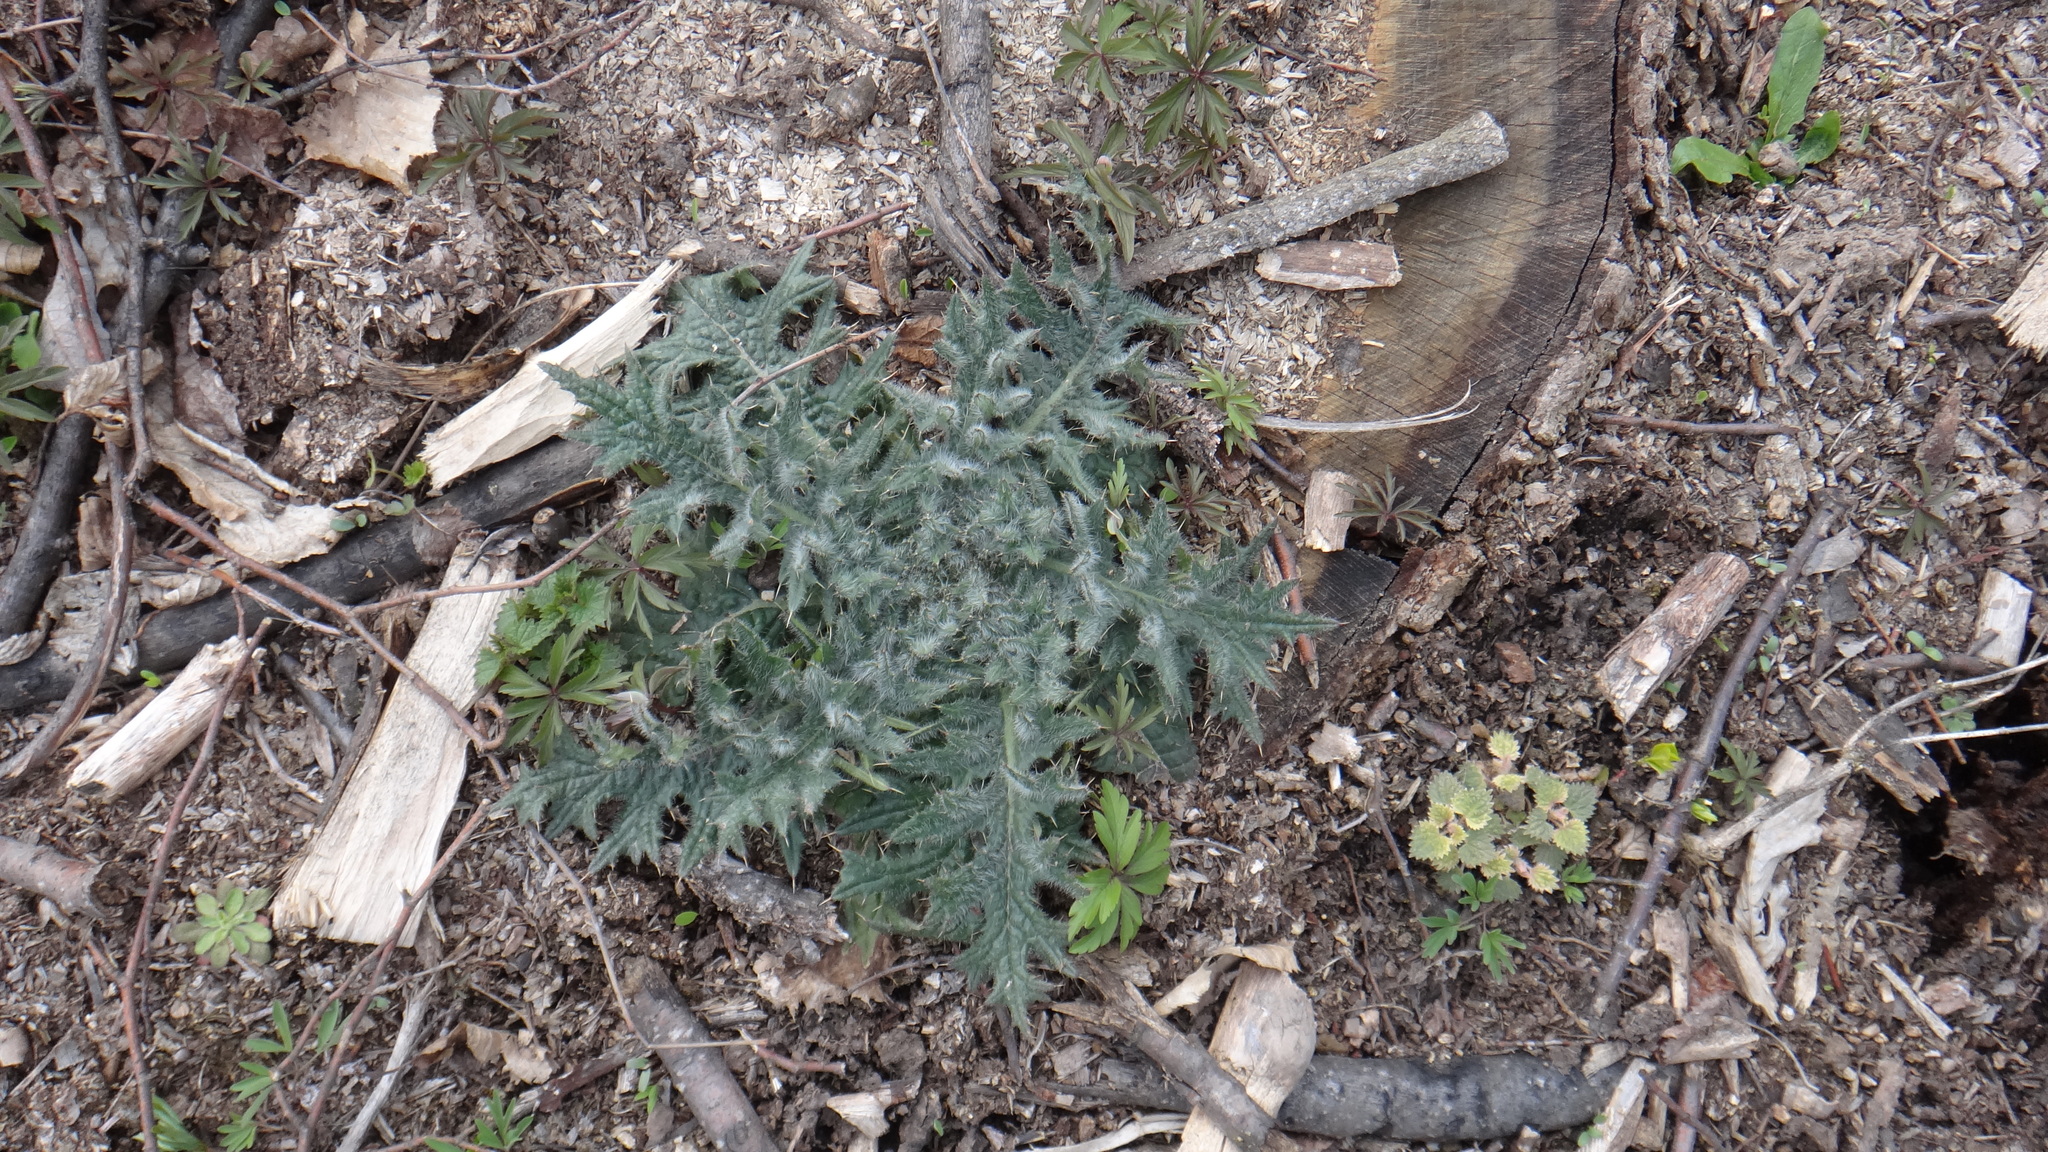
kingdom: Plantae
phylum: Tracheophyta
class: Magnoliopsida
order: Asterales
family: Asteraceae
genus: Cirsium
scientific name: Cirsium vulgare
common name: Bull thistle
